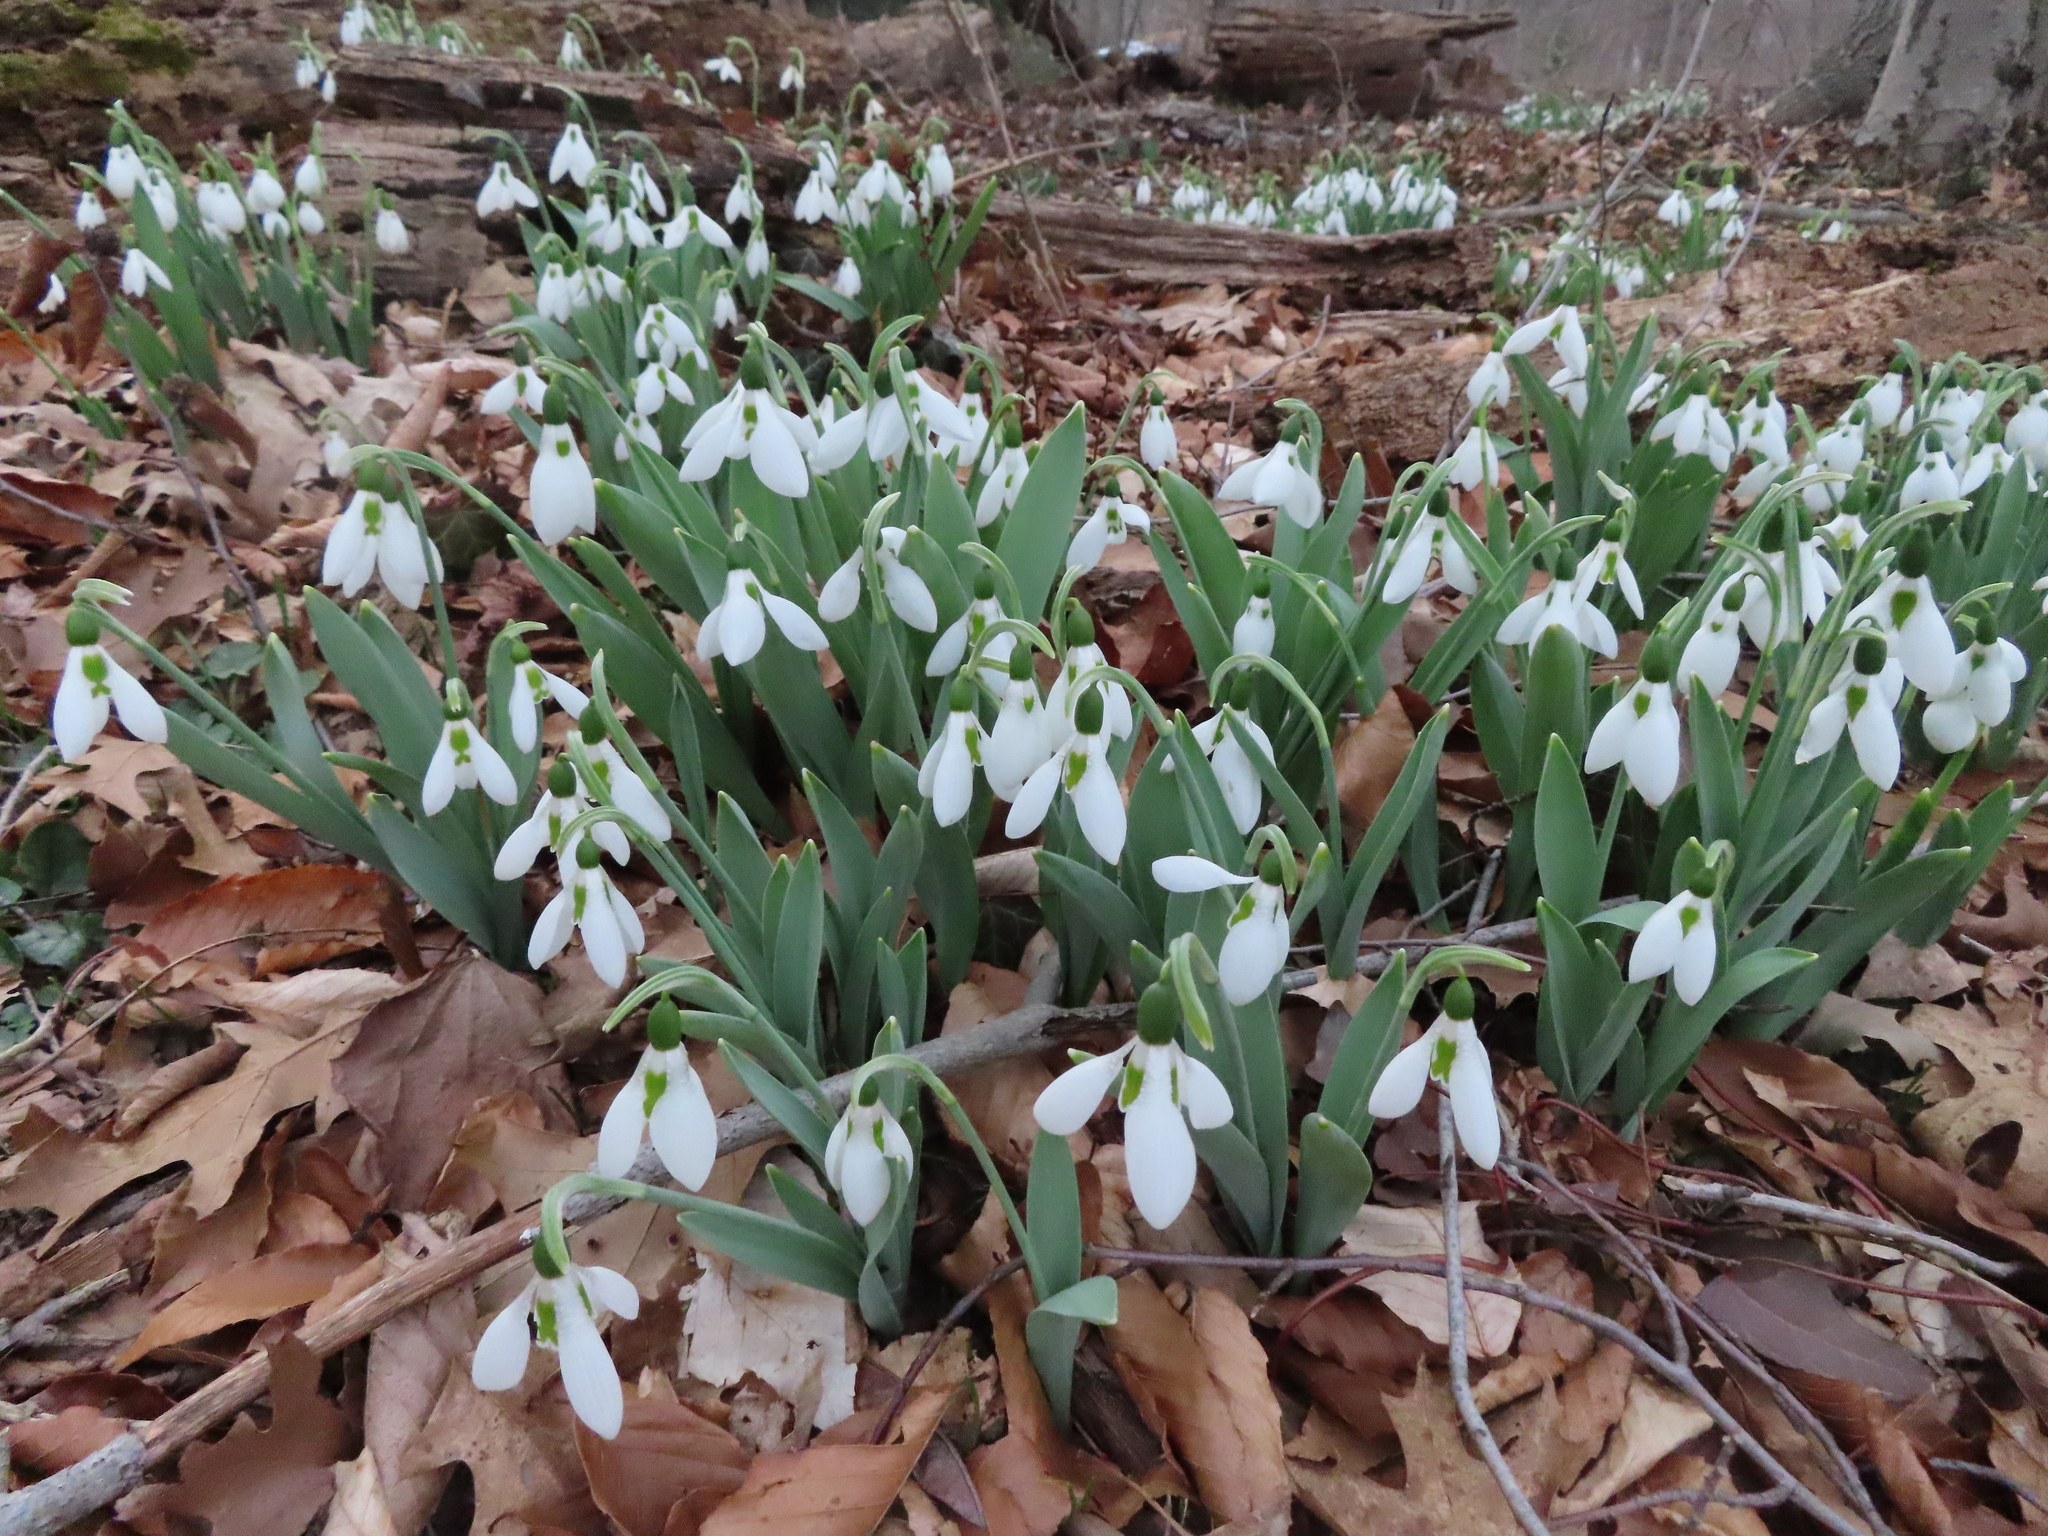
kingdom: Plantae
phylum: Tracheophyta
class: Liliopsida
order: Asparagales
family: Amaryllidaceae
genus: Galanthus
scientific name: Galanthus elwesii
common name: Greater snowdrop
